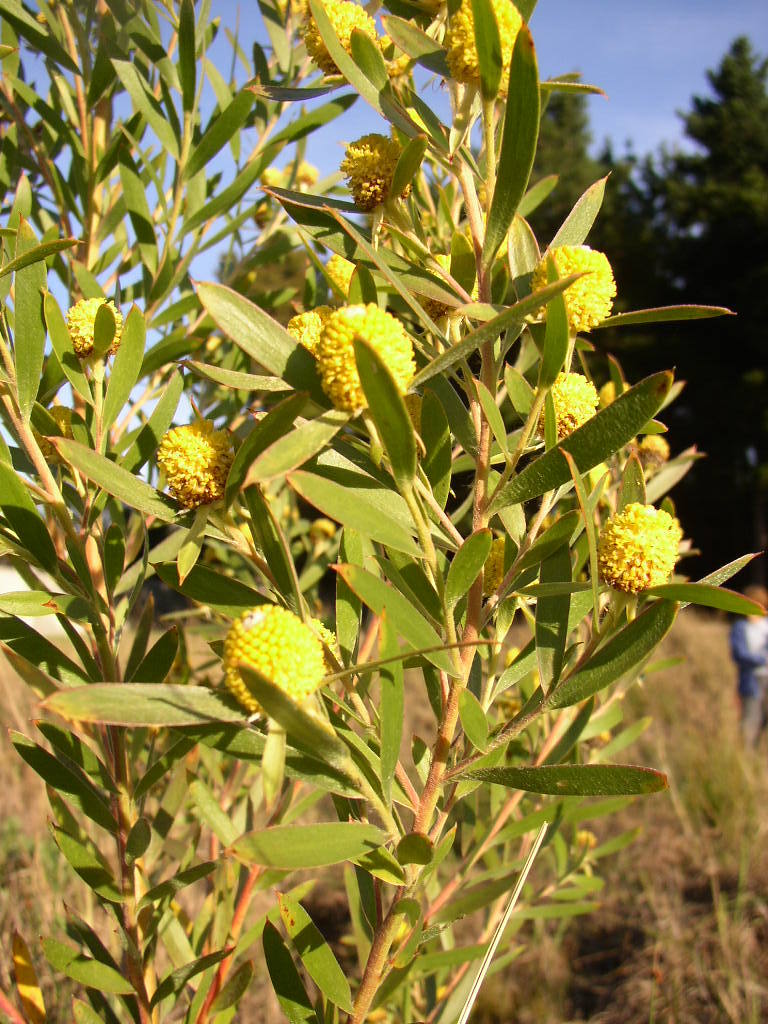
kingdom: Plantae
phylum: Tracheophyta
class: Magnoliopsida
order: Proteales
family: Proteaceae
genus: Leucadendron
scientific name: Leucadendron macowanii
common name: Acacia-leaf conebush
